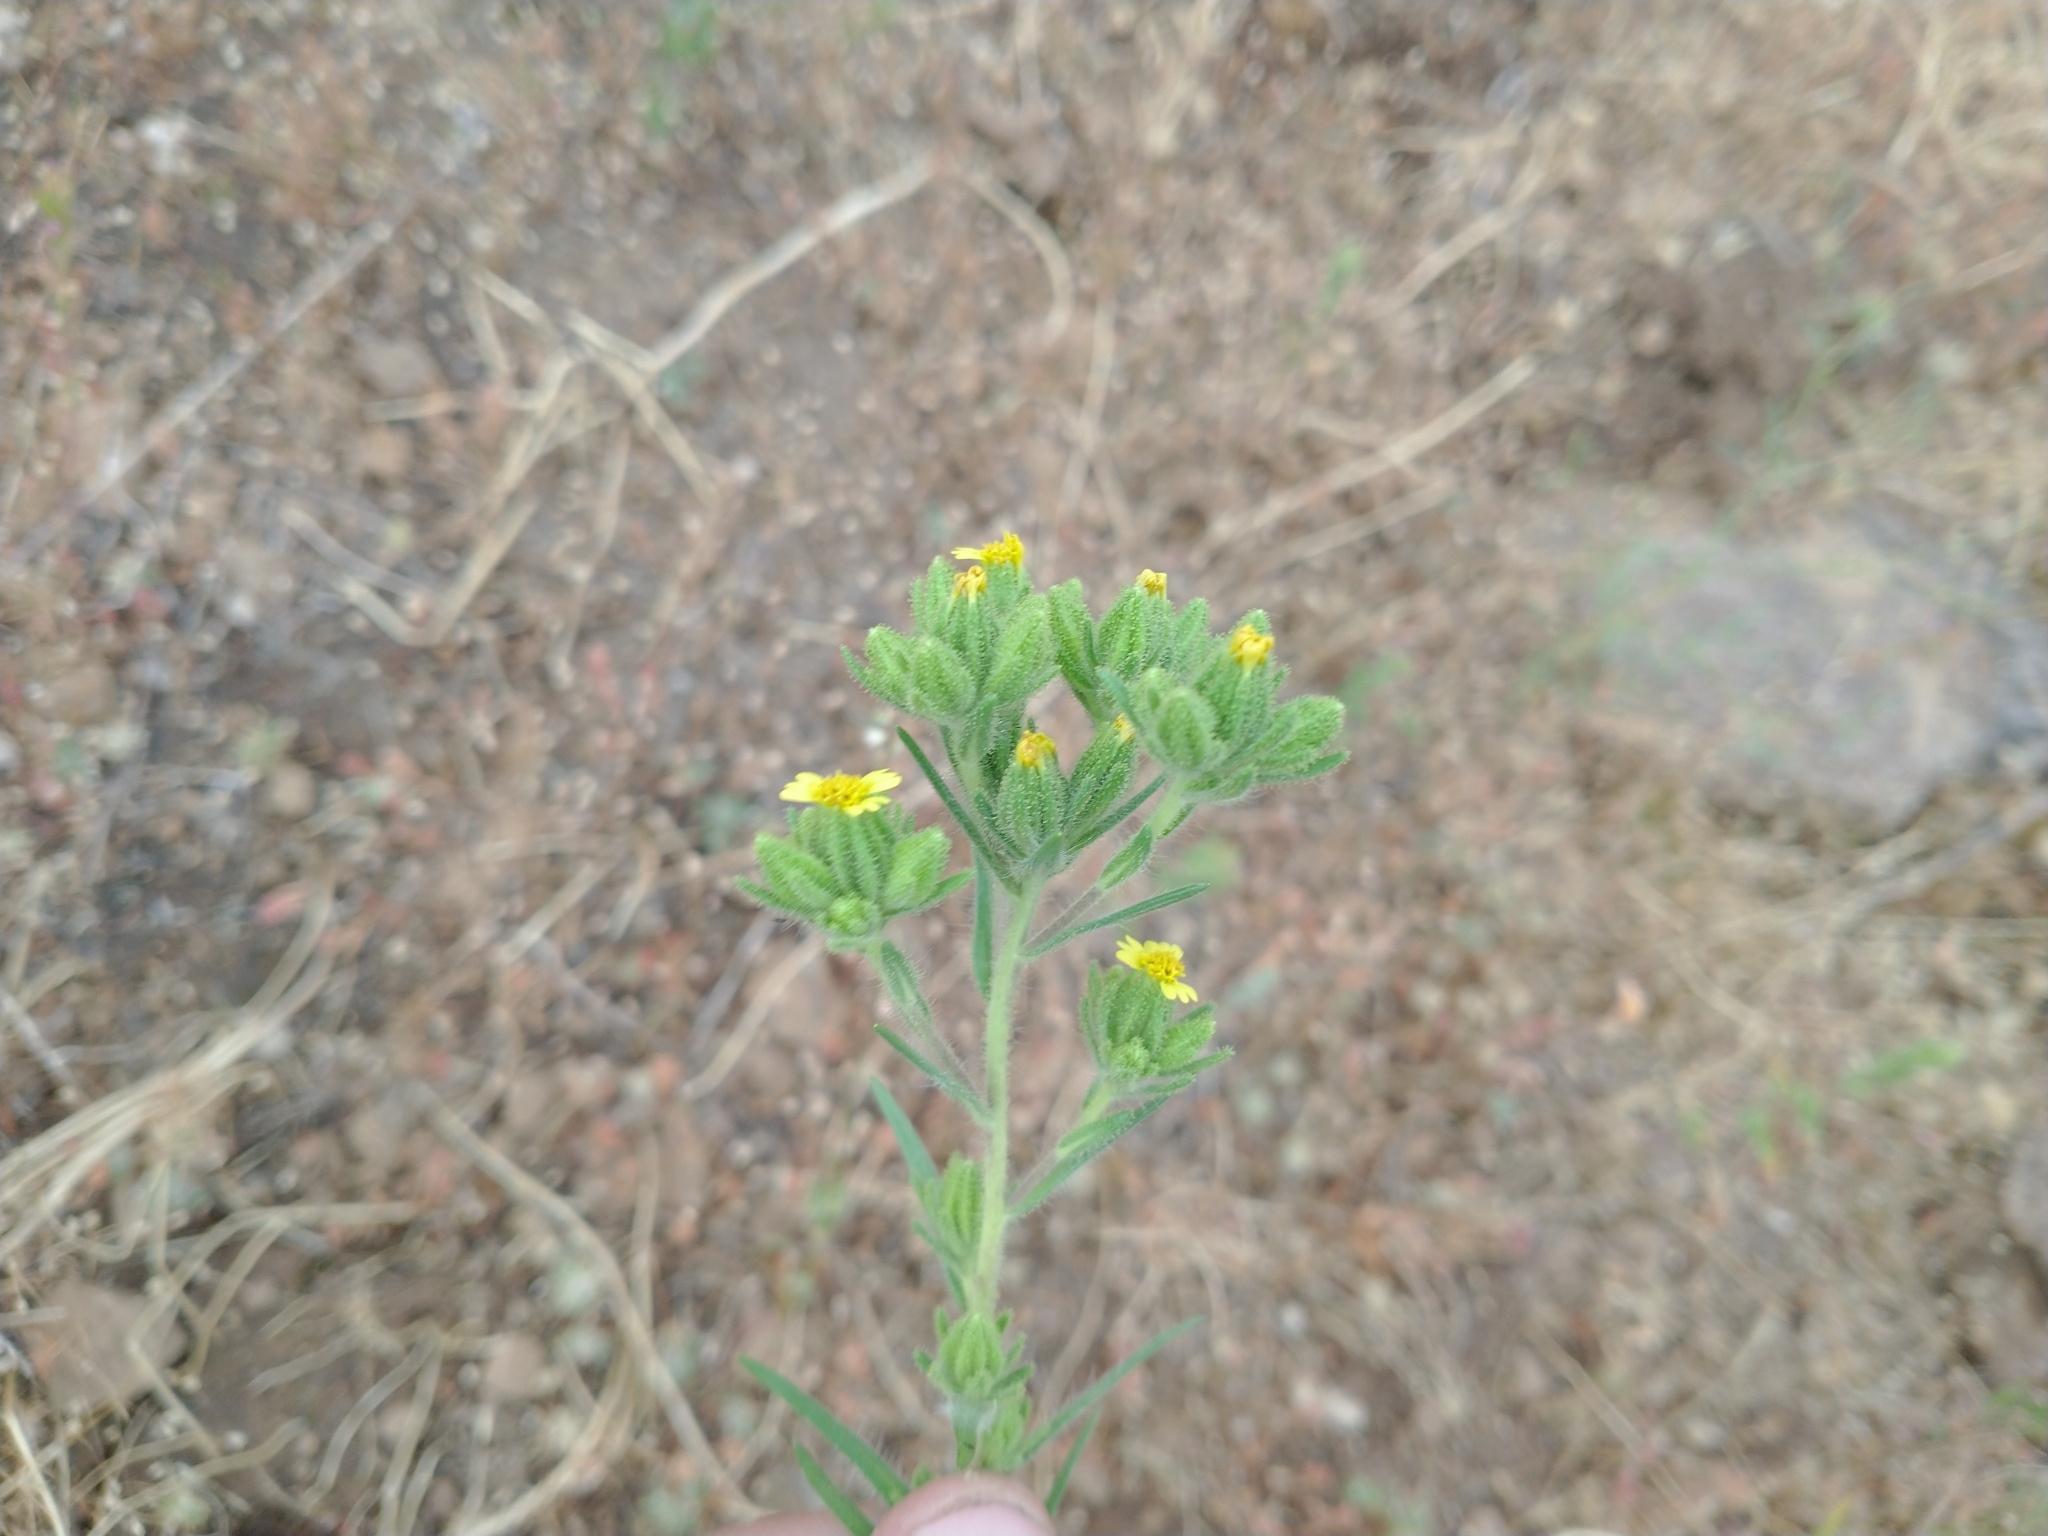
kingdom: Plantae
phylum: Tracheophyta
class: Magnoliopsida
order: Asterales
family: Asteraceae
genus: Madia
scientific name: Madia glomerata
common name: Mountain tarweed
